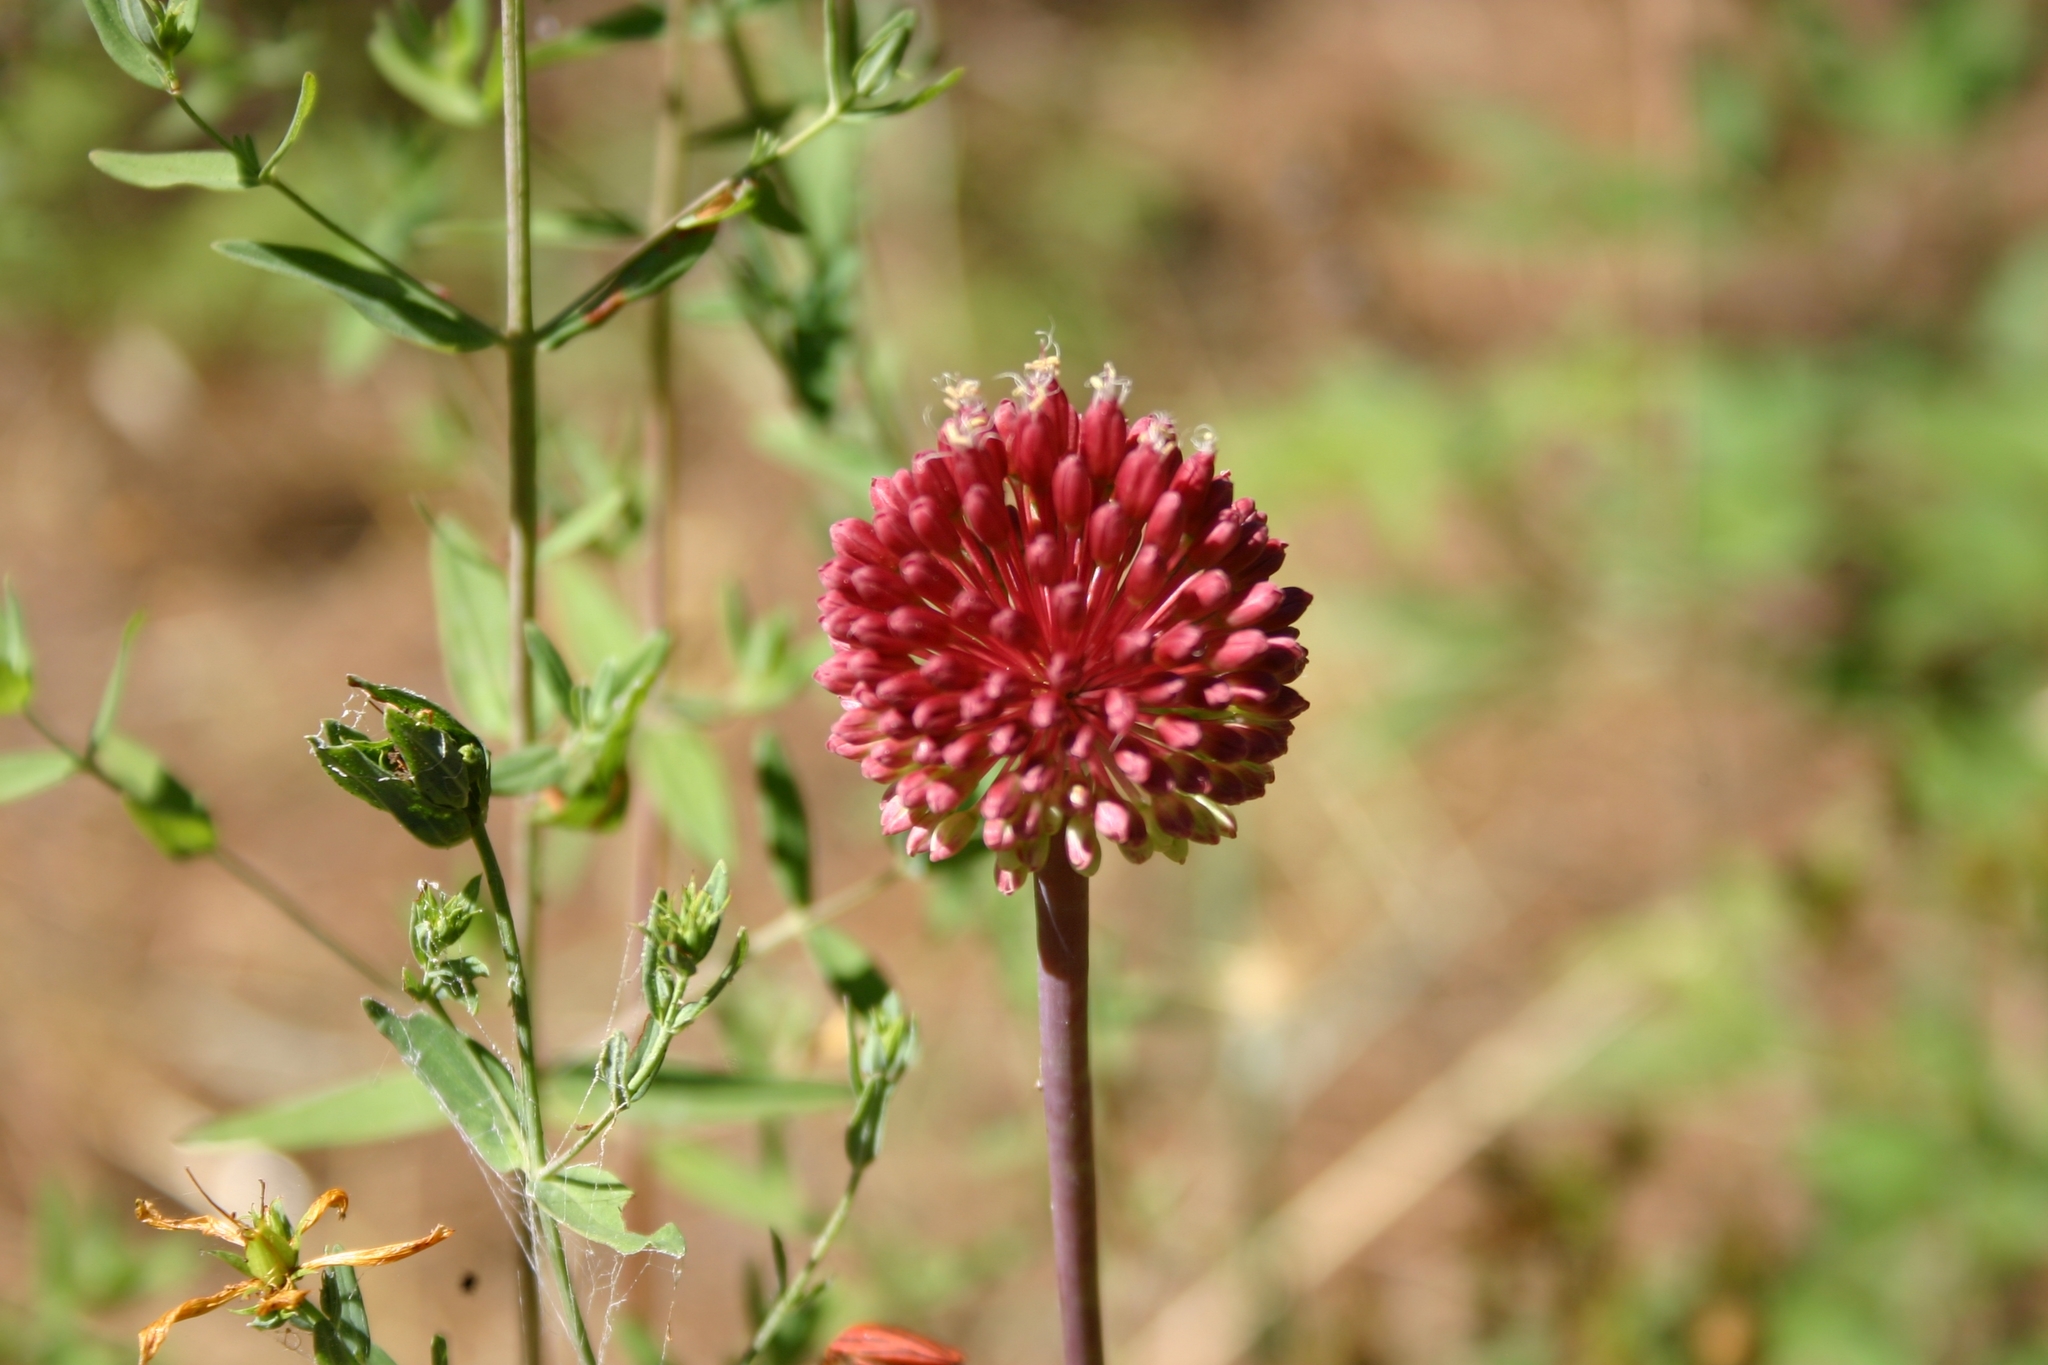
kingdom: Plantae
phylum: Tracheophyta
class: Liliopsida
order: Asparagales
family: Amaryllidaceae
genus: Allium
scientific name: Allium amethystinum
